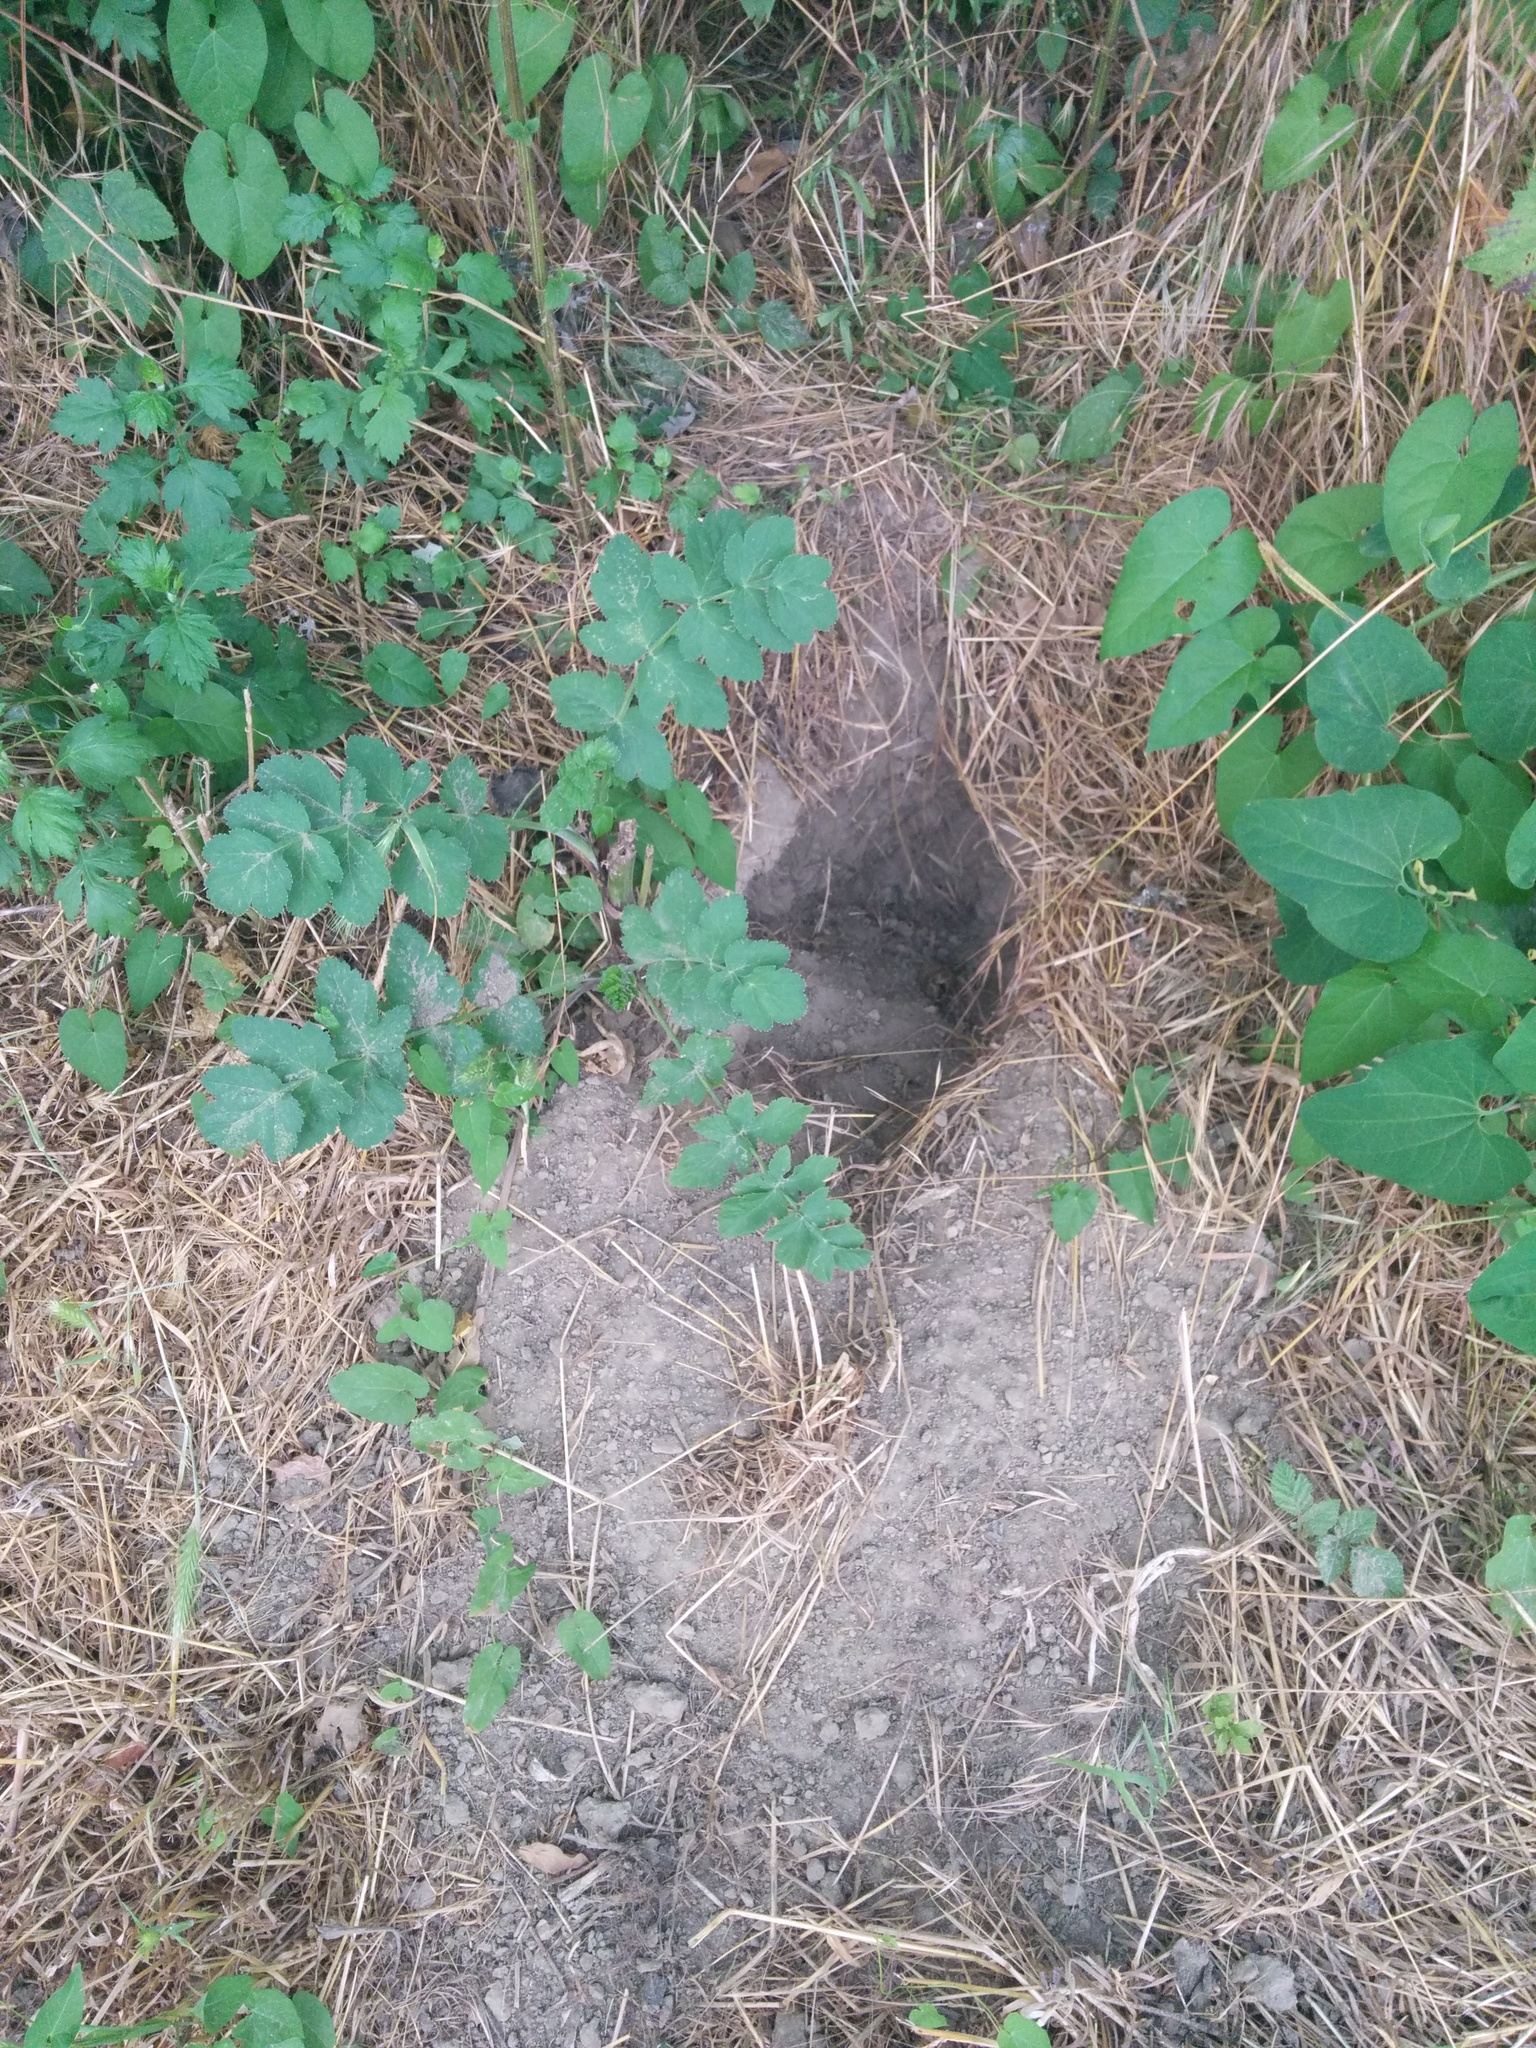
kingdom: Animalia
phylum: Chordata
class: Mammalia
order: Rodentia
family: Hystricidae
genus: Hystrix
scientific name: Hystrix cristata
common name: Crested porcupine
